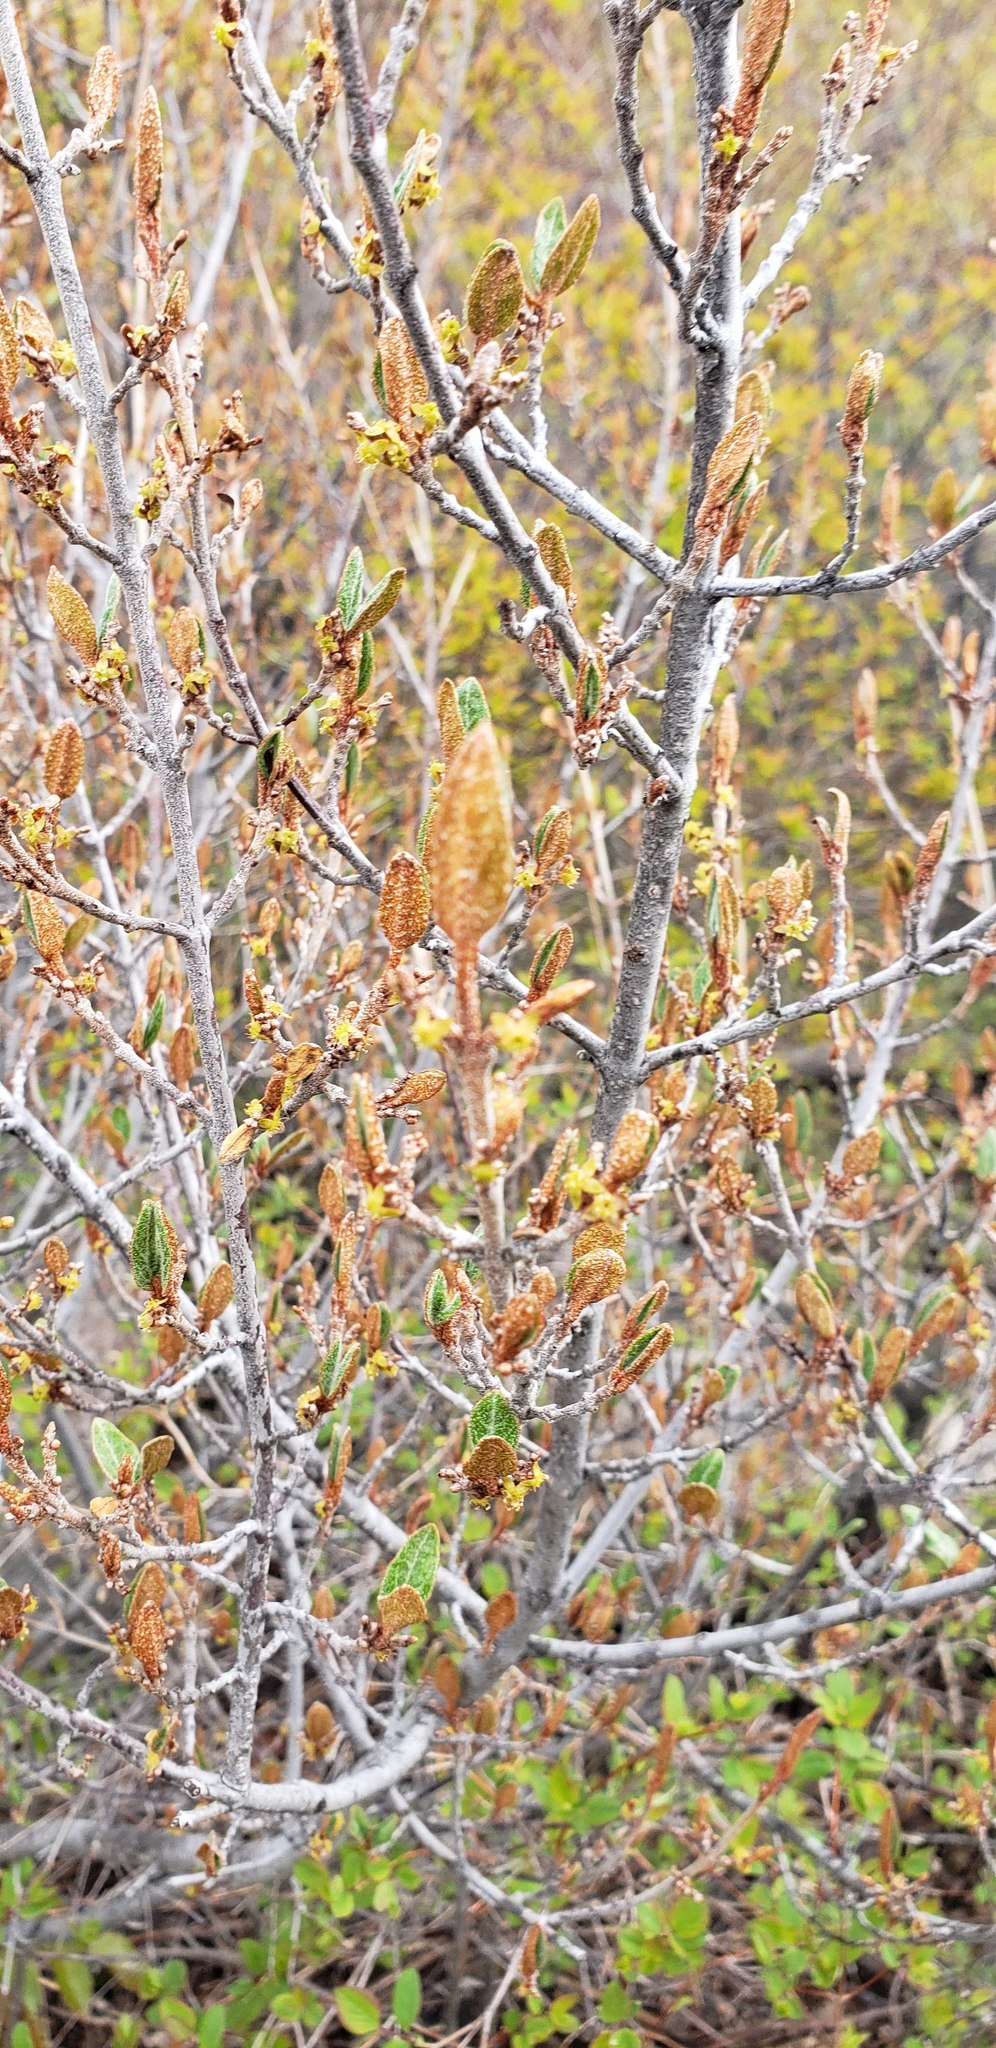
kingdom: Plantae
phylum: Tracheophyta
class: Magnoliopsida
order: Rosales
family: Elaeagnaceae
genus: Shepherdia
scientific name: Shepherdia canadensis
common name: Soapberry
